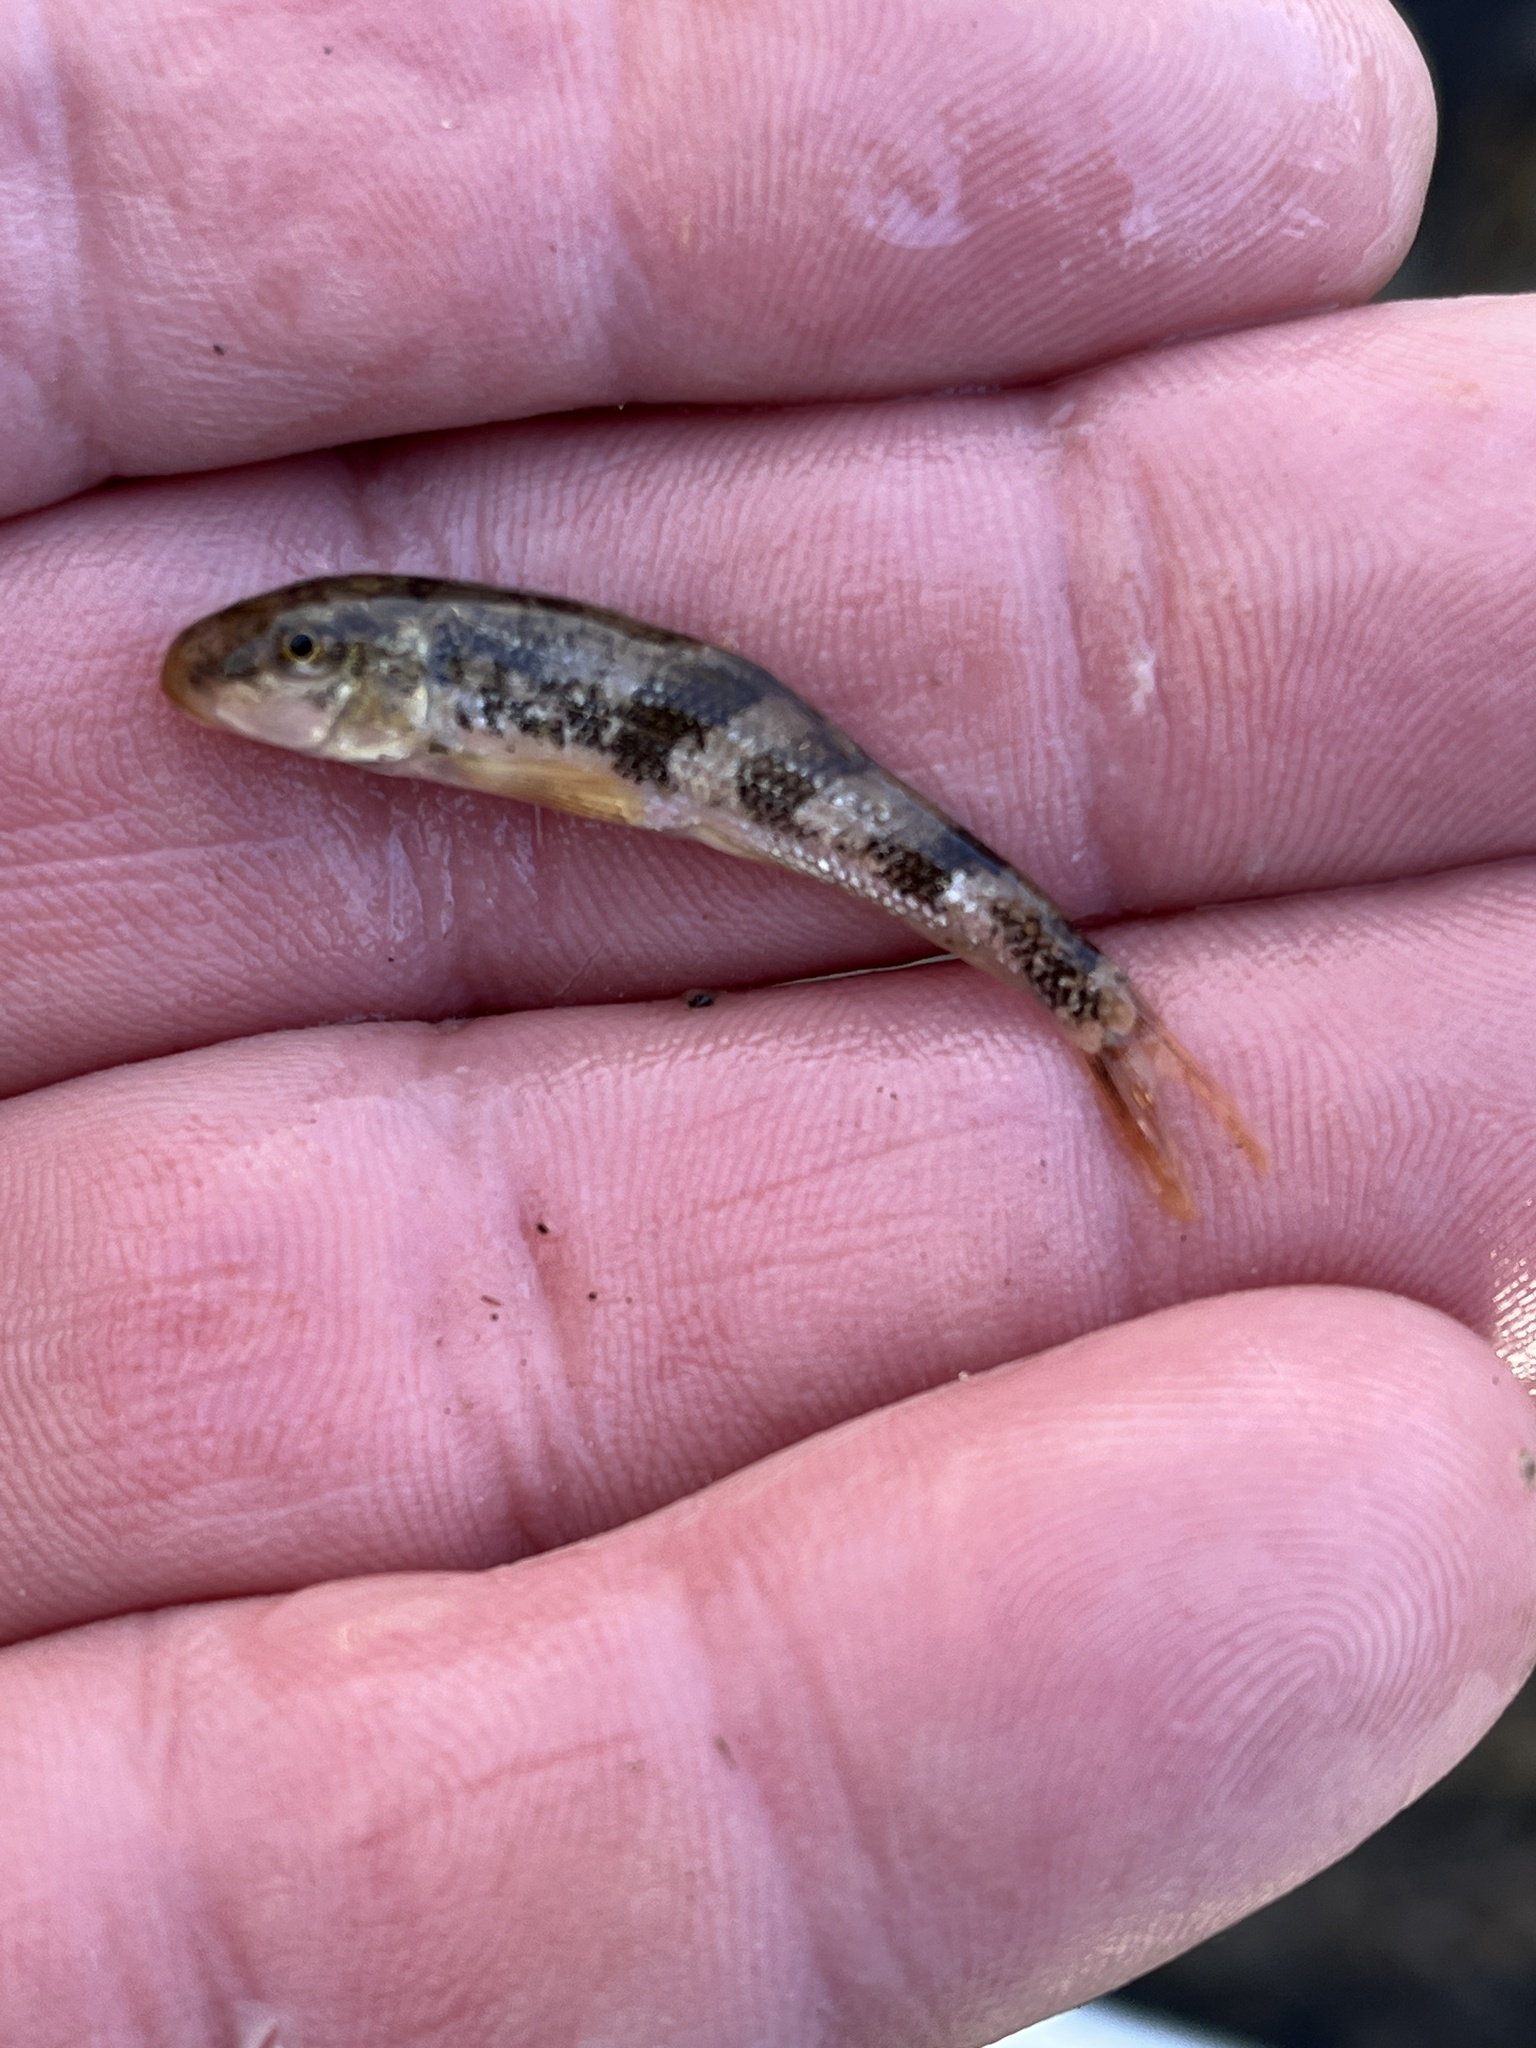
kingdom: Animalia
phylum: Chordata
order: Cypriniformes
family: Catostomidae
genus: Hypentelium
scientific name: Hypentelium nigricans
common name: Northern hog sucker
